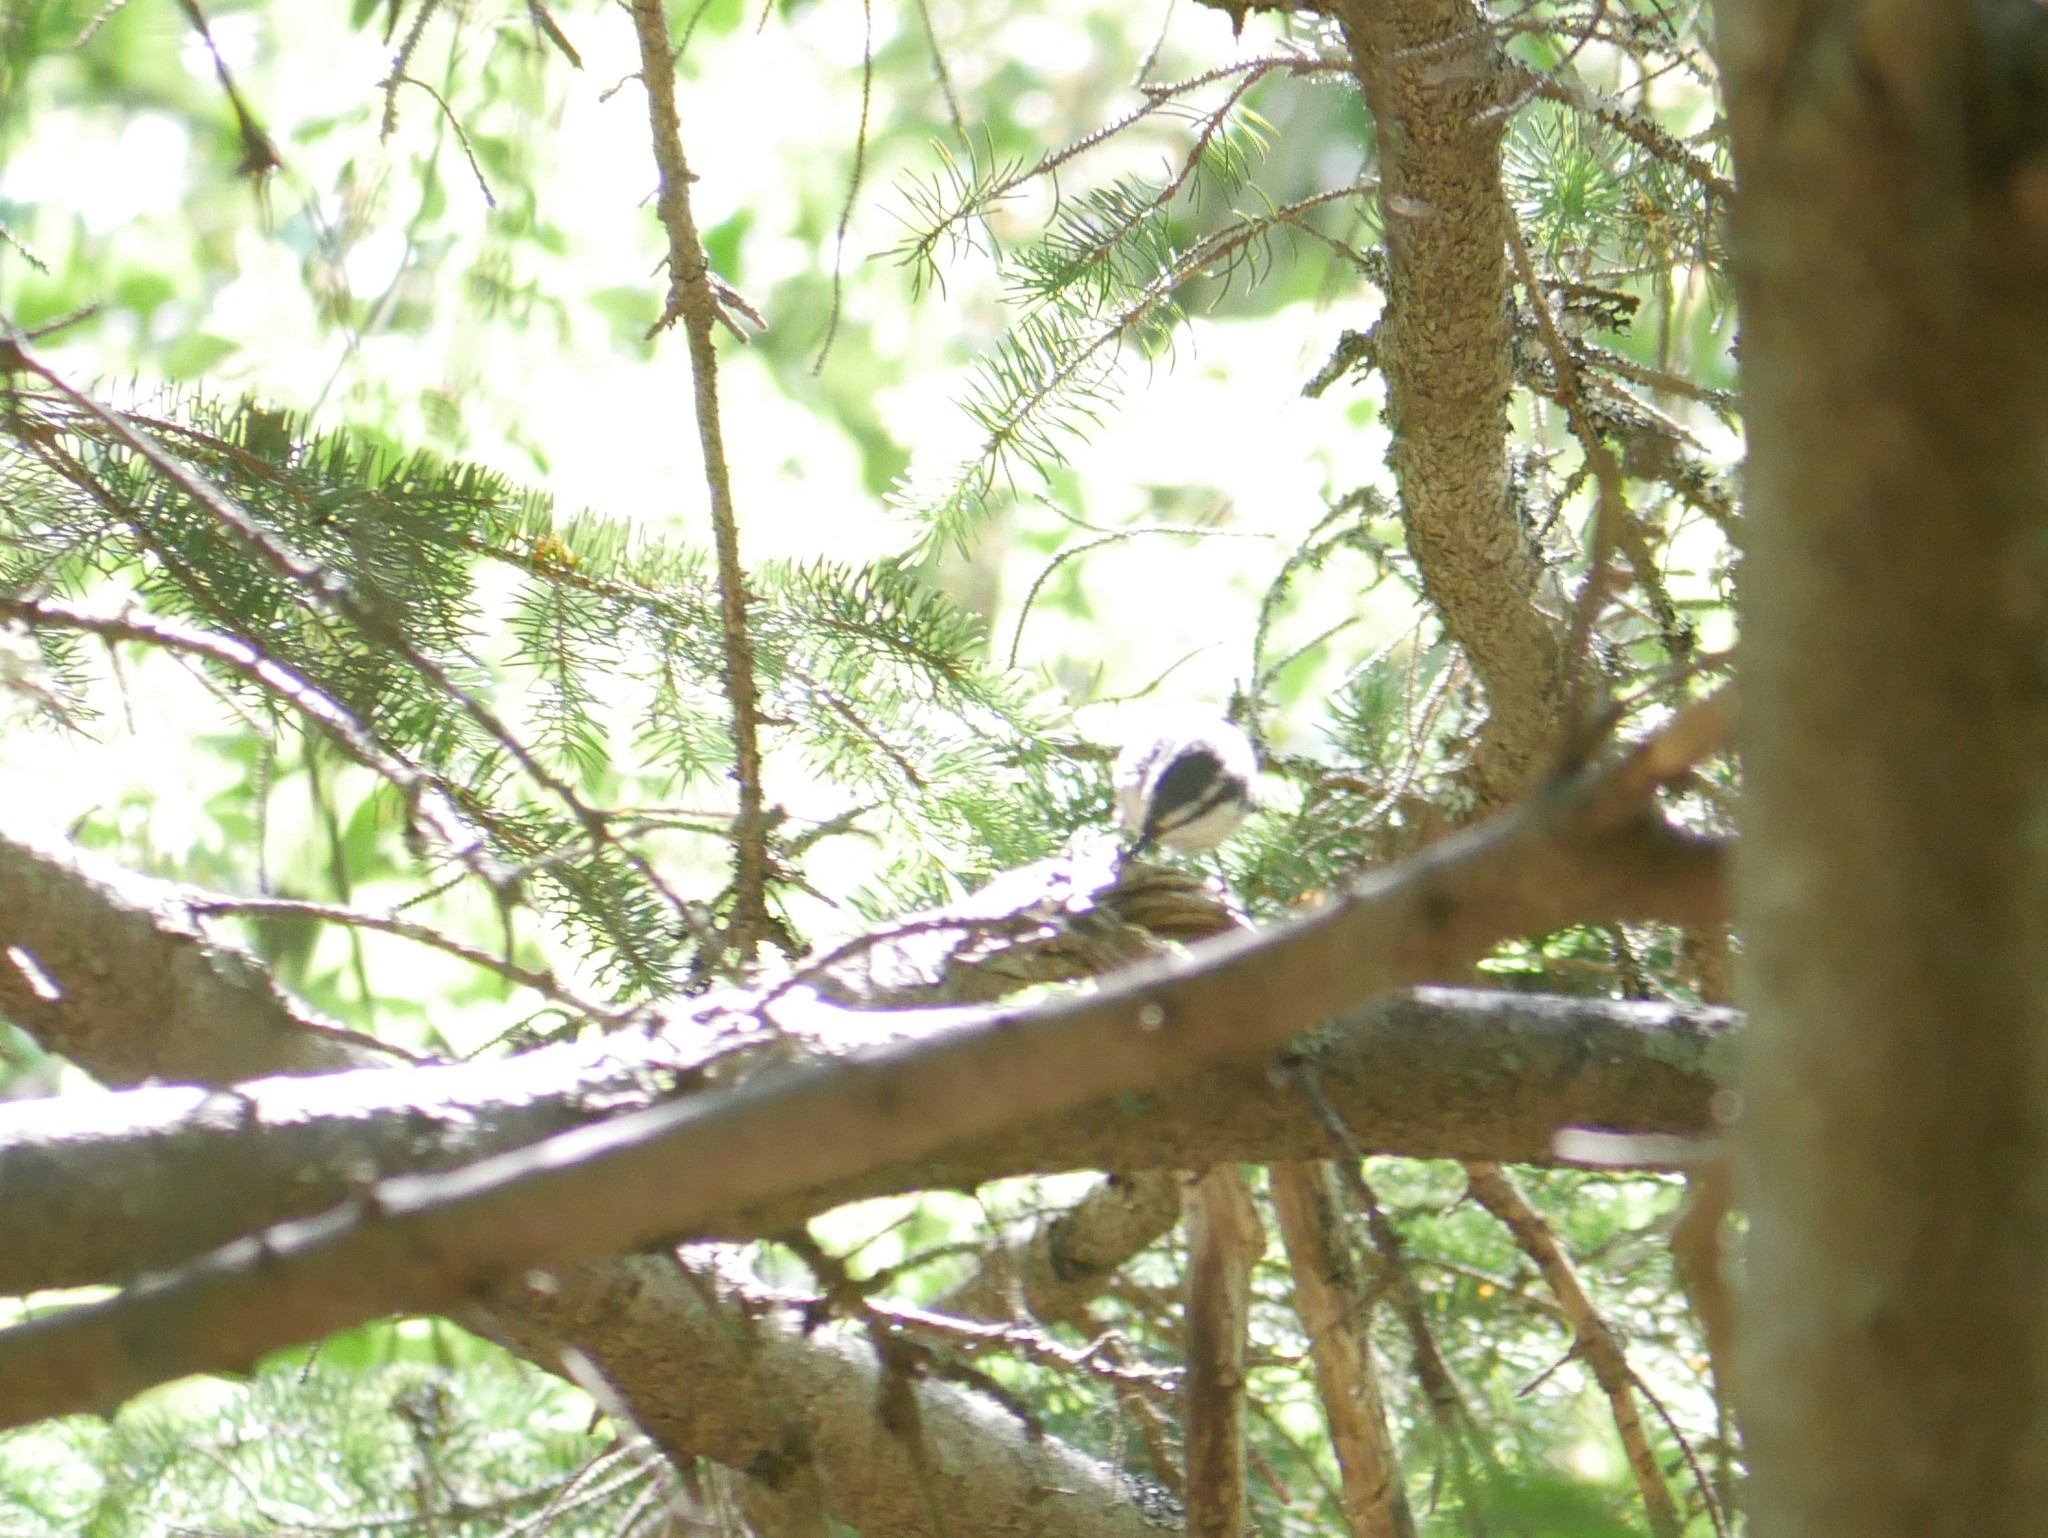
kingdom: Animalia
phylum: Chordata
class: Aves
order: Passeriformes
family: Sittidae
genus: Sitta
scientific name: Sitta canadensis
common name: Red-breasted nuthatch
